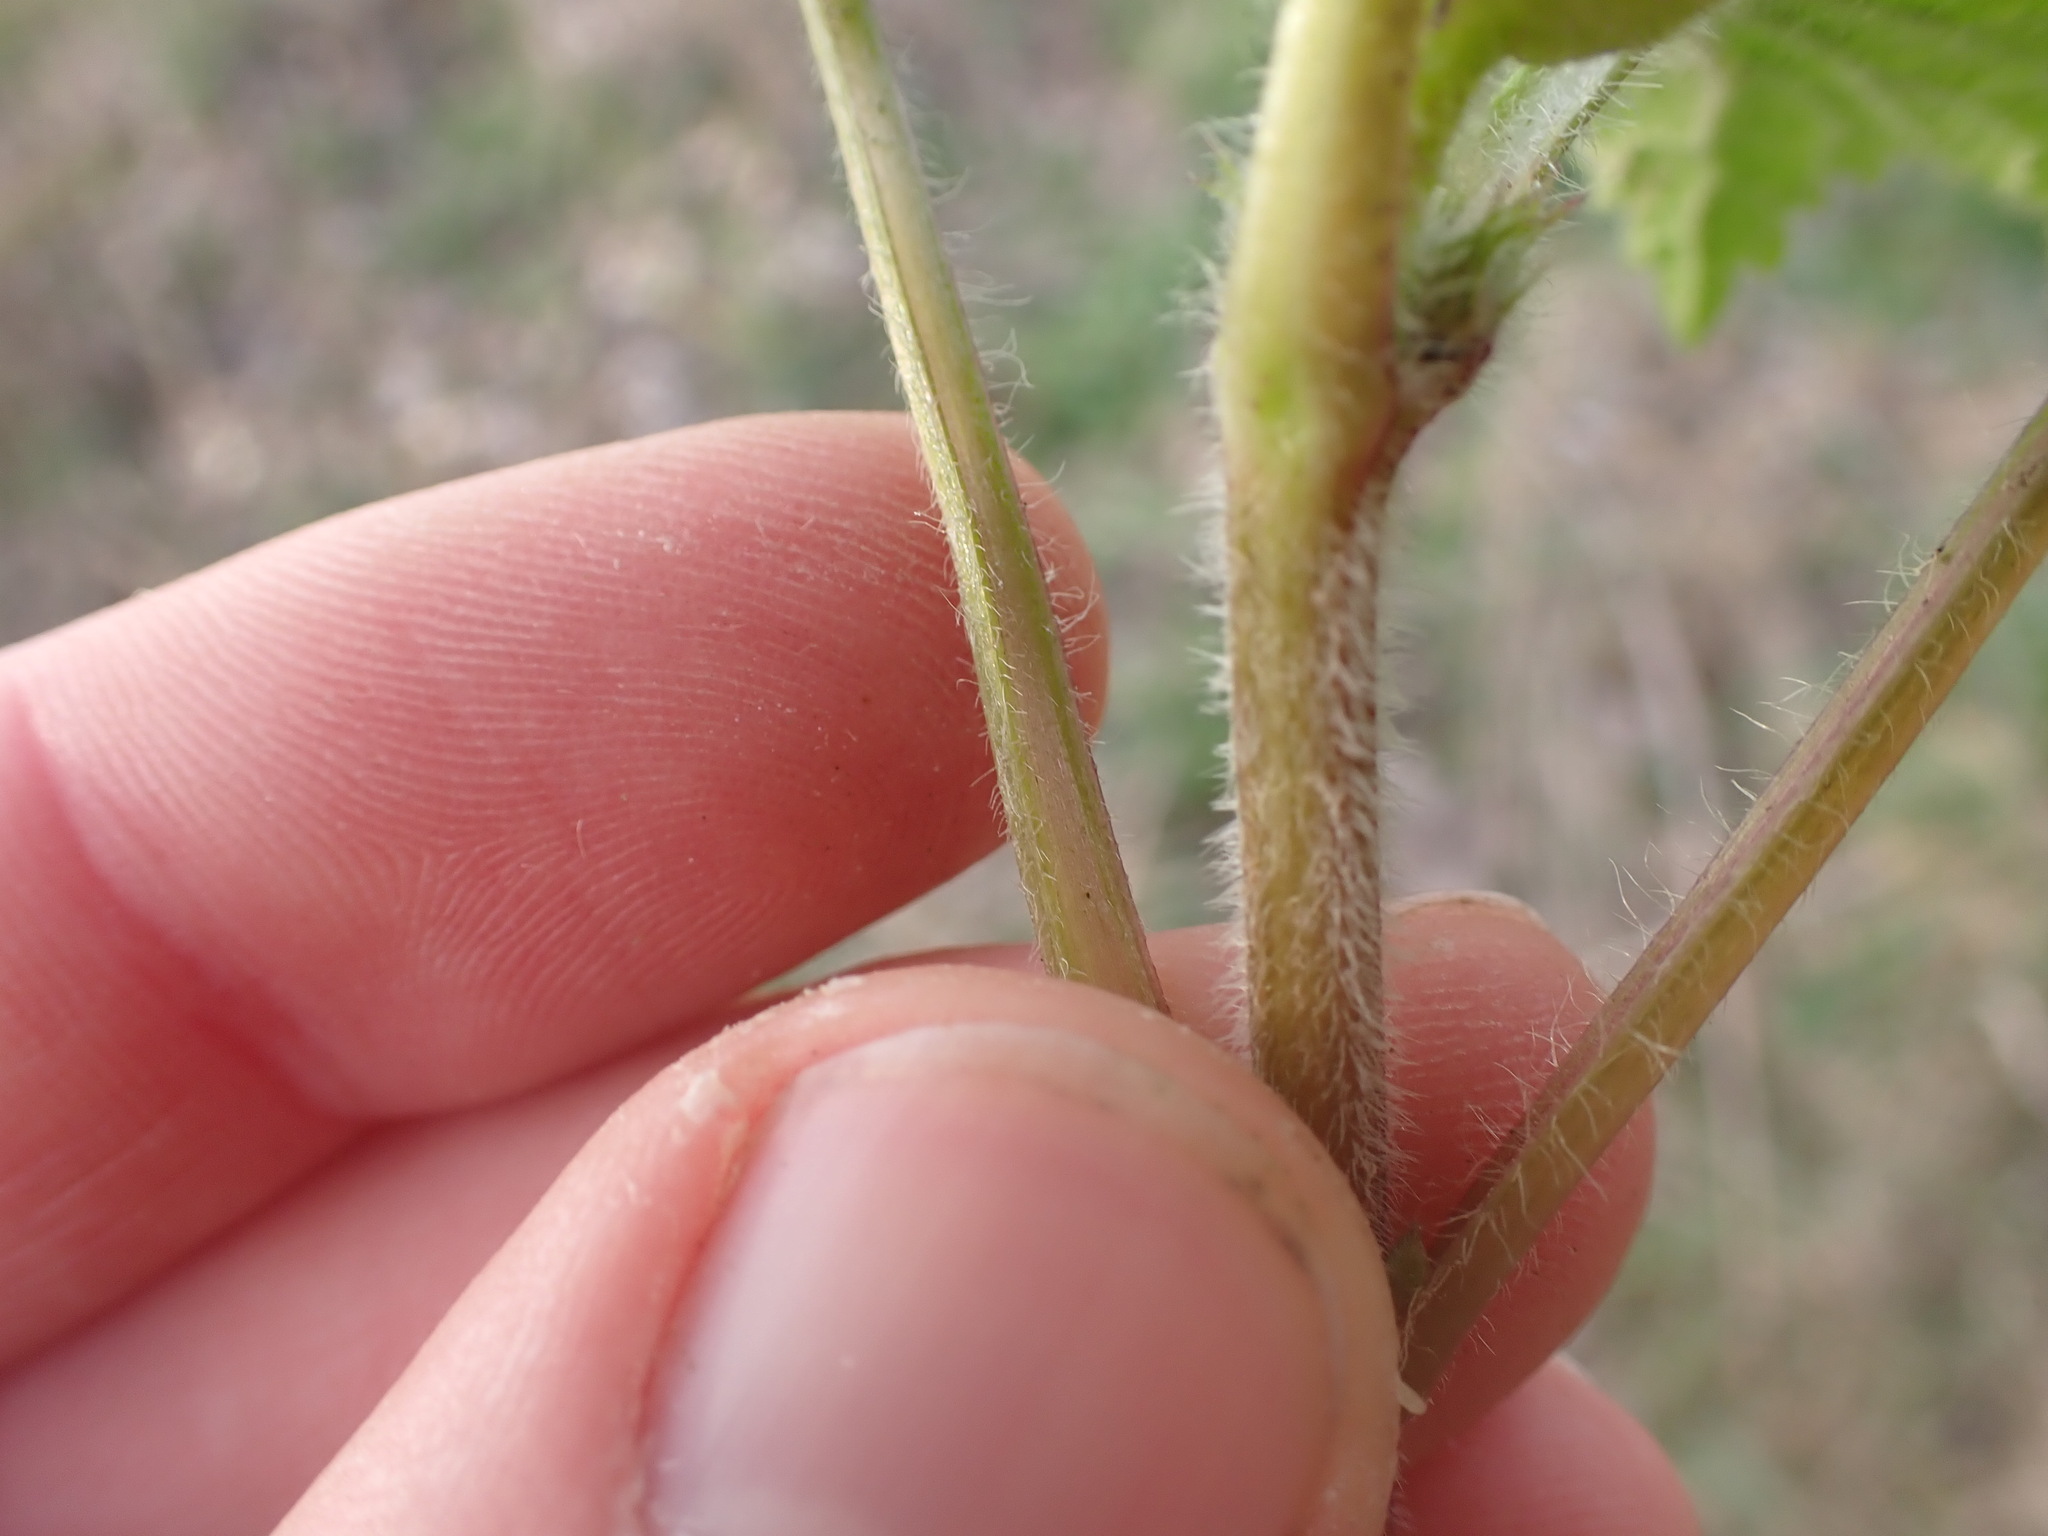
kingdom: Plantae
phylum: Tracheophyta
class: Magnoliopsida
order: Lamiales
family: Lamiaceae
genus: Stachys
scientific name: Stachys sylvatica
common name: Hedge woundwort
